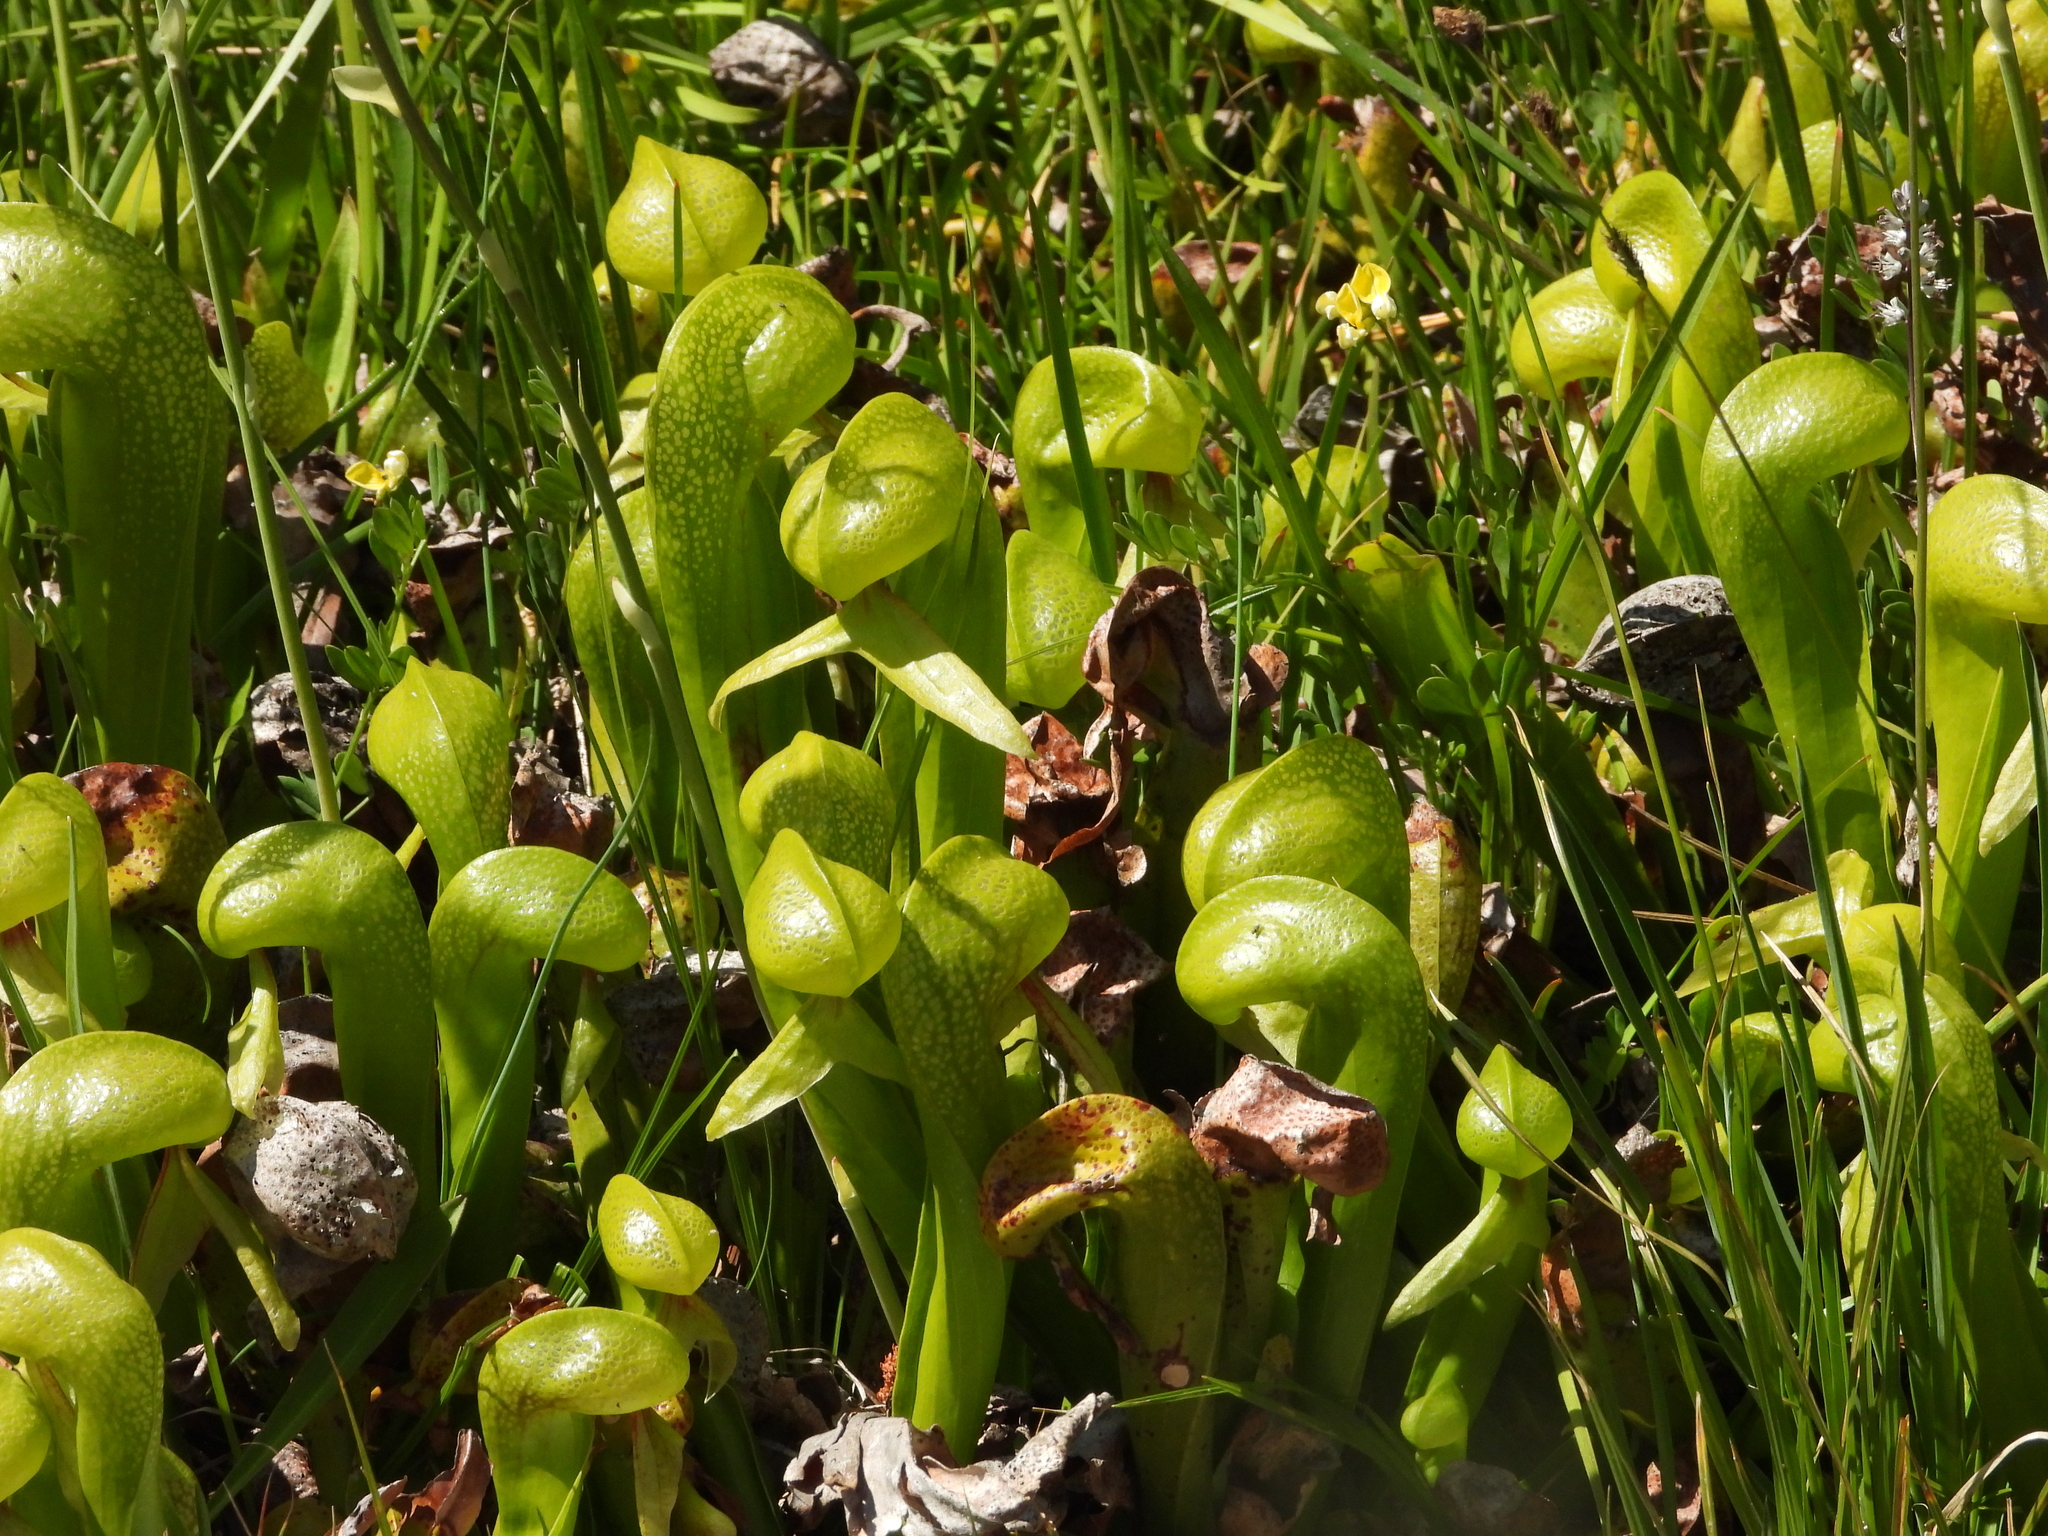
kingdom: Plantae
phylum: Tracheophyta
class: Magnoliopsida
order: Ericales
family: Sarraceniaceae
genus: Darlingtonia
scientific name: Darlingtonia californica
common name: California pitcher plant
